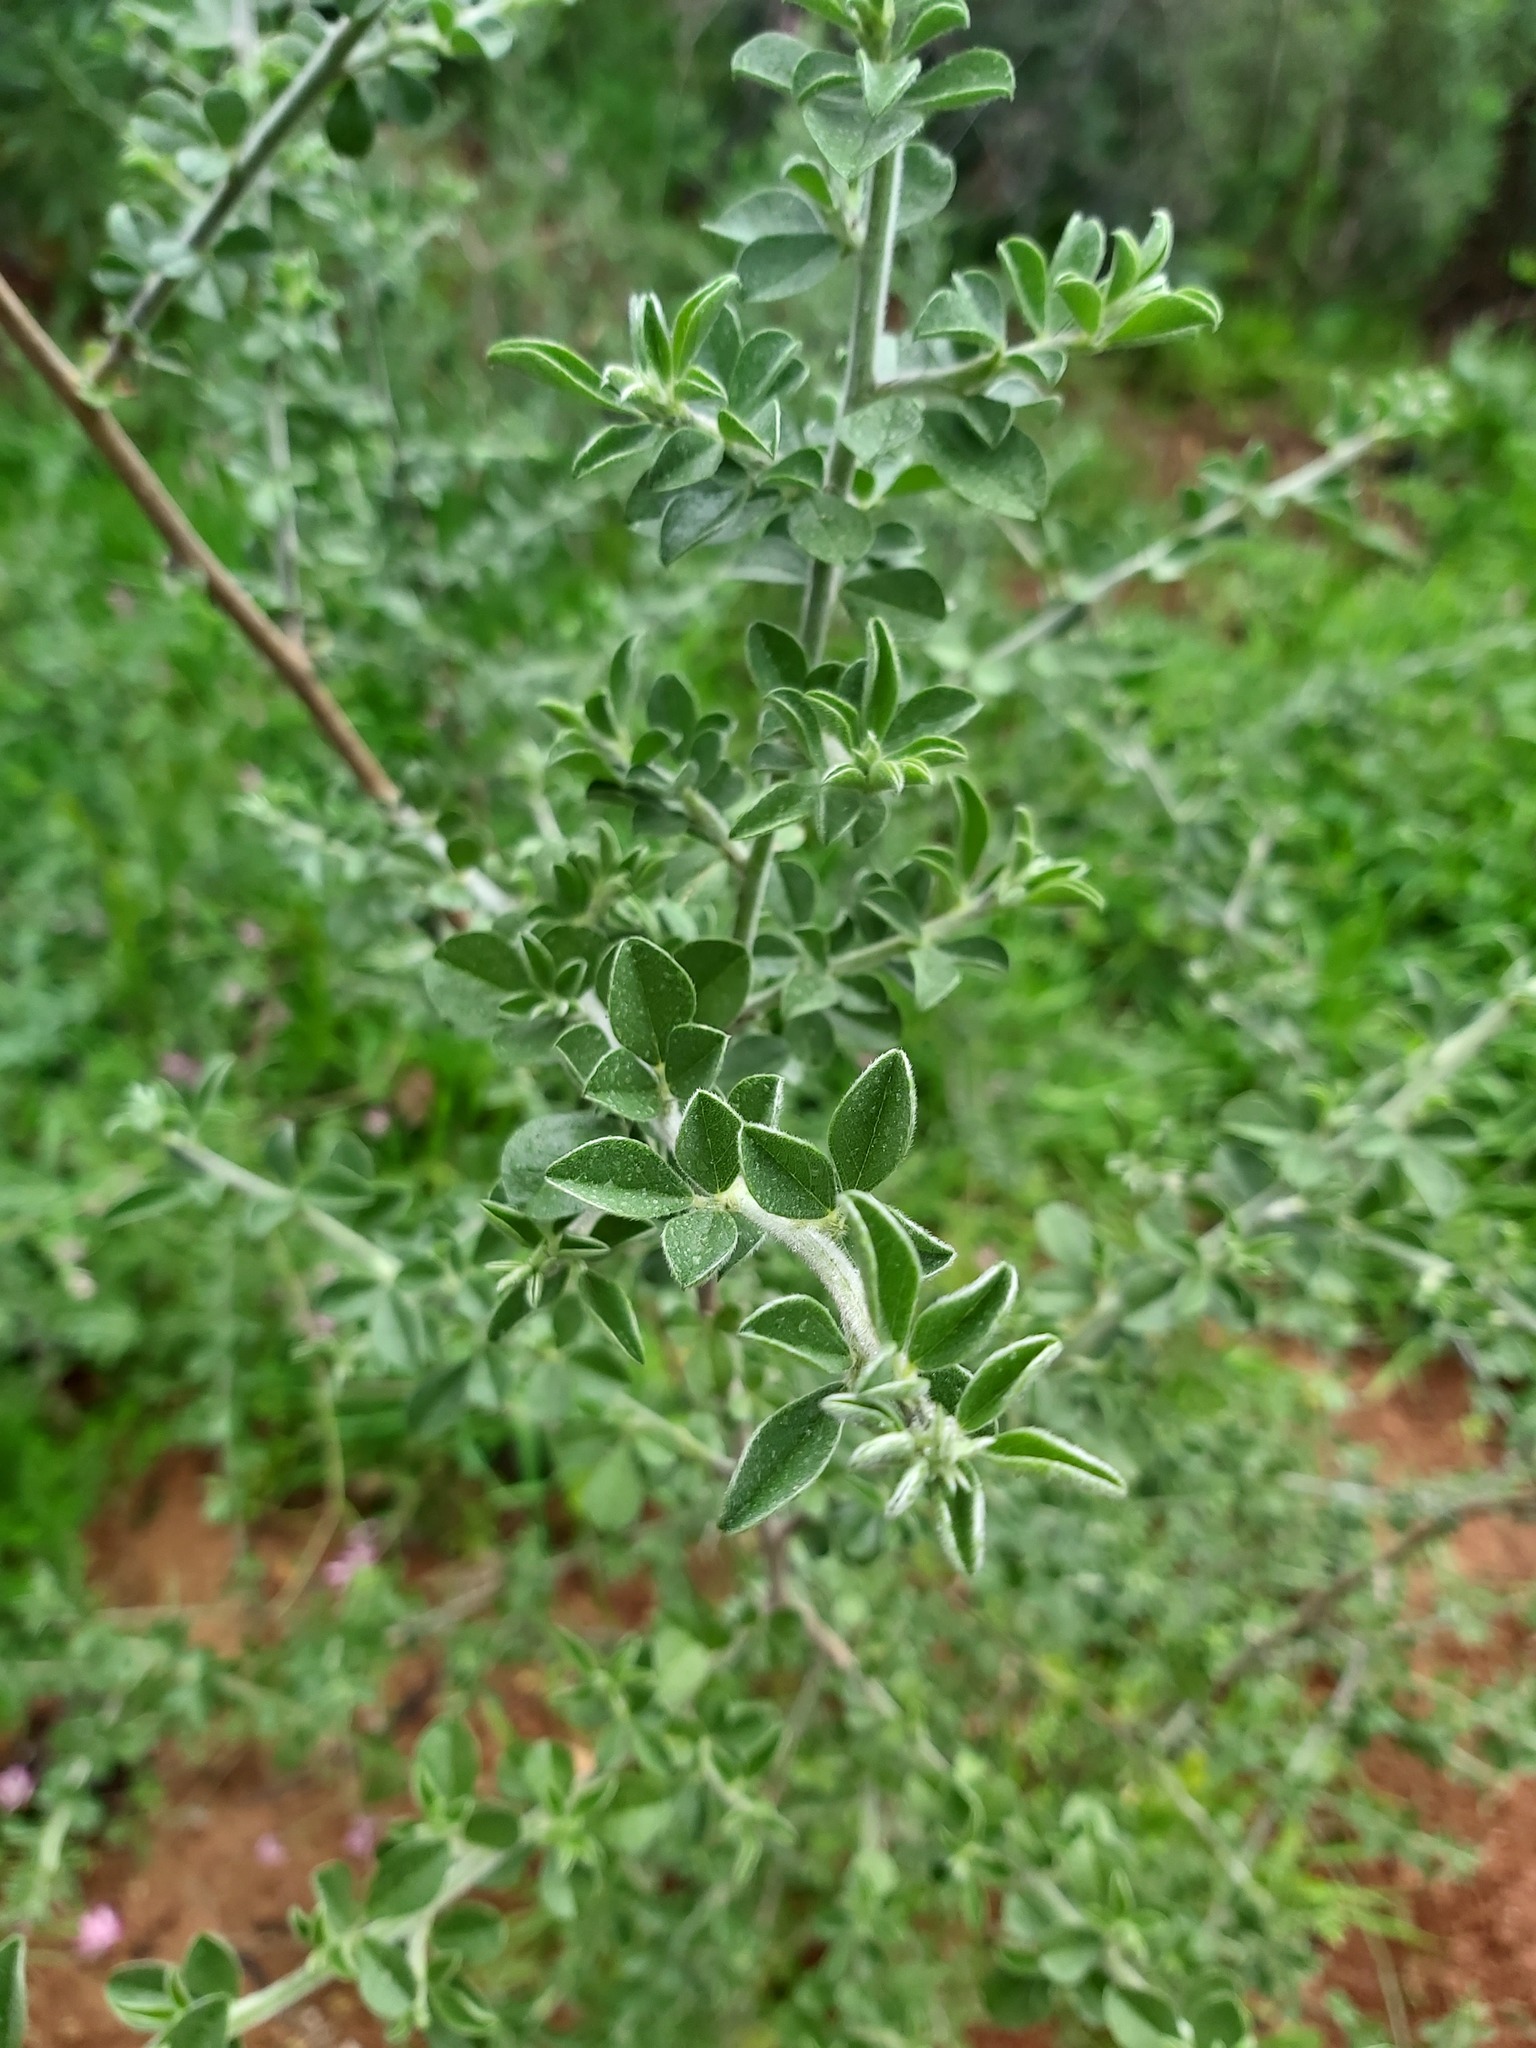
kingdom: Plantae
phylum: Tracheophyta
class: Magnoliopsida
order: Fabales
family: Fabaceae
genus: Psoralea
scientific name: Psoralea hirta
